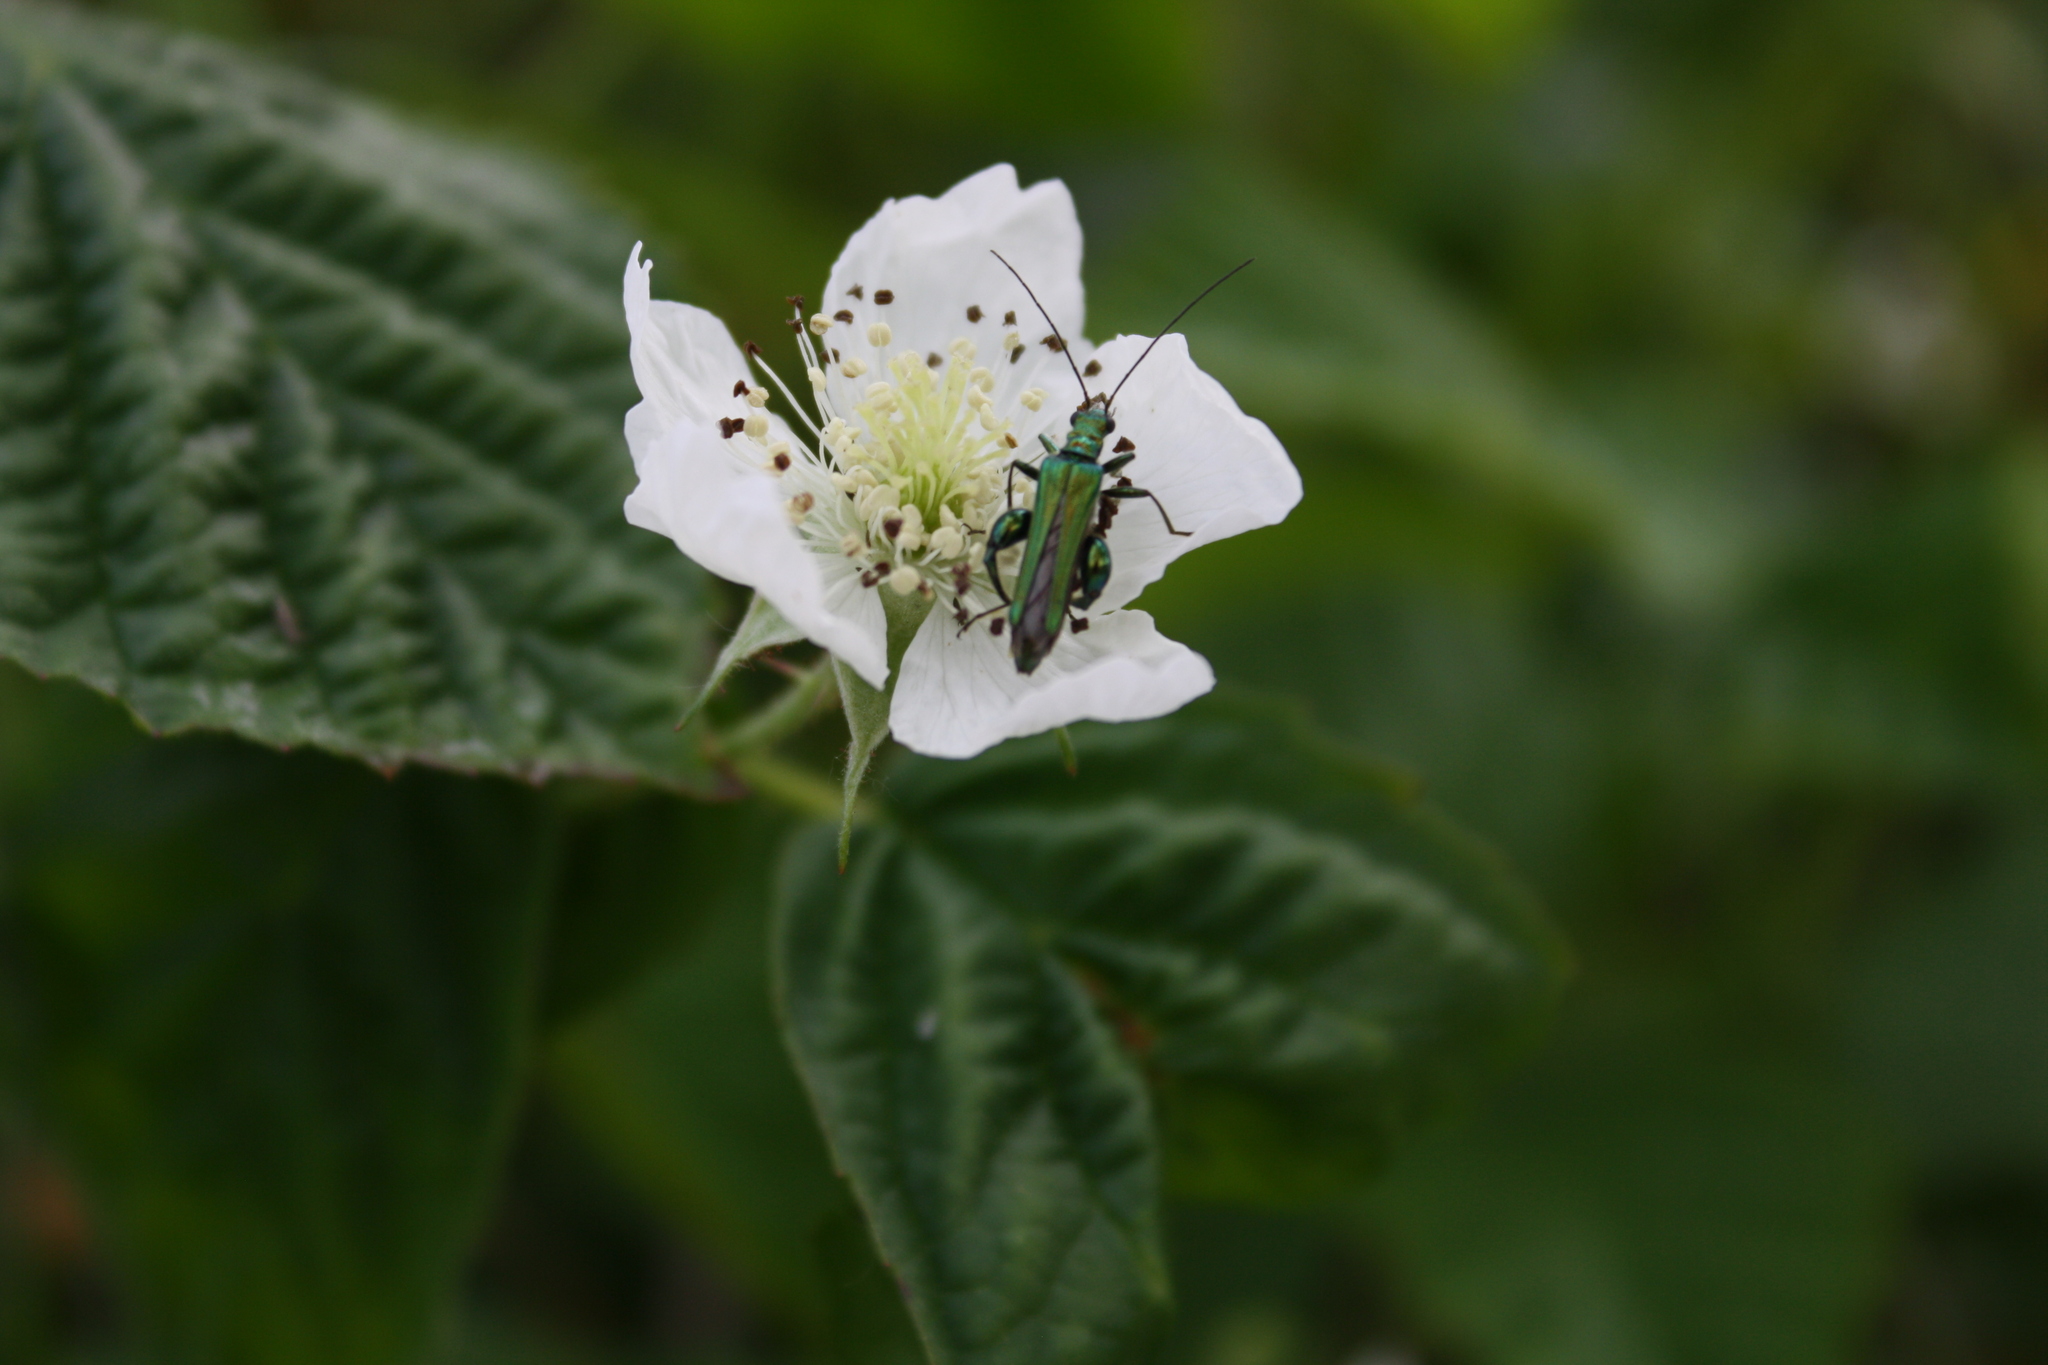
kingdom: Animalia
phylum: Arthropoda
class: Insecta
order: Coleoptera
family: Oedemeridae
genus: Oedemera
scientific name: Oedemera nobilis
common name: Swollen-thighed beetle
